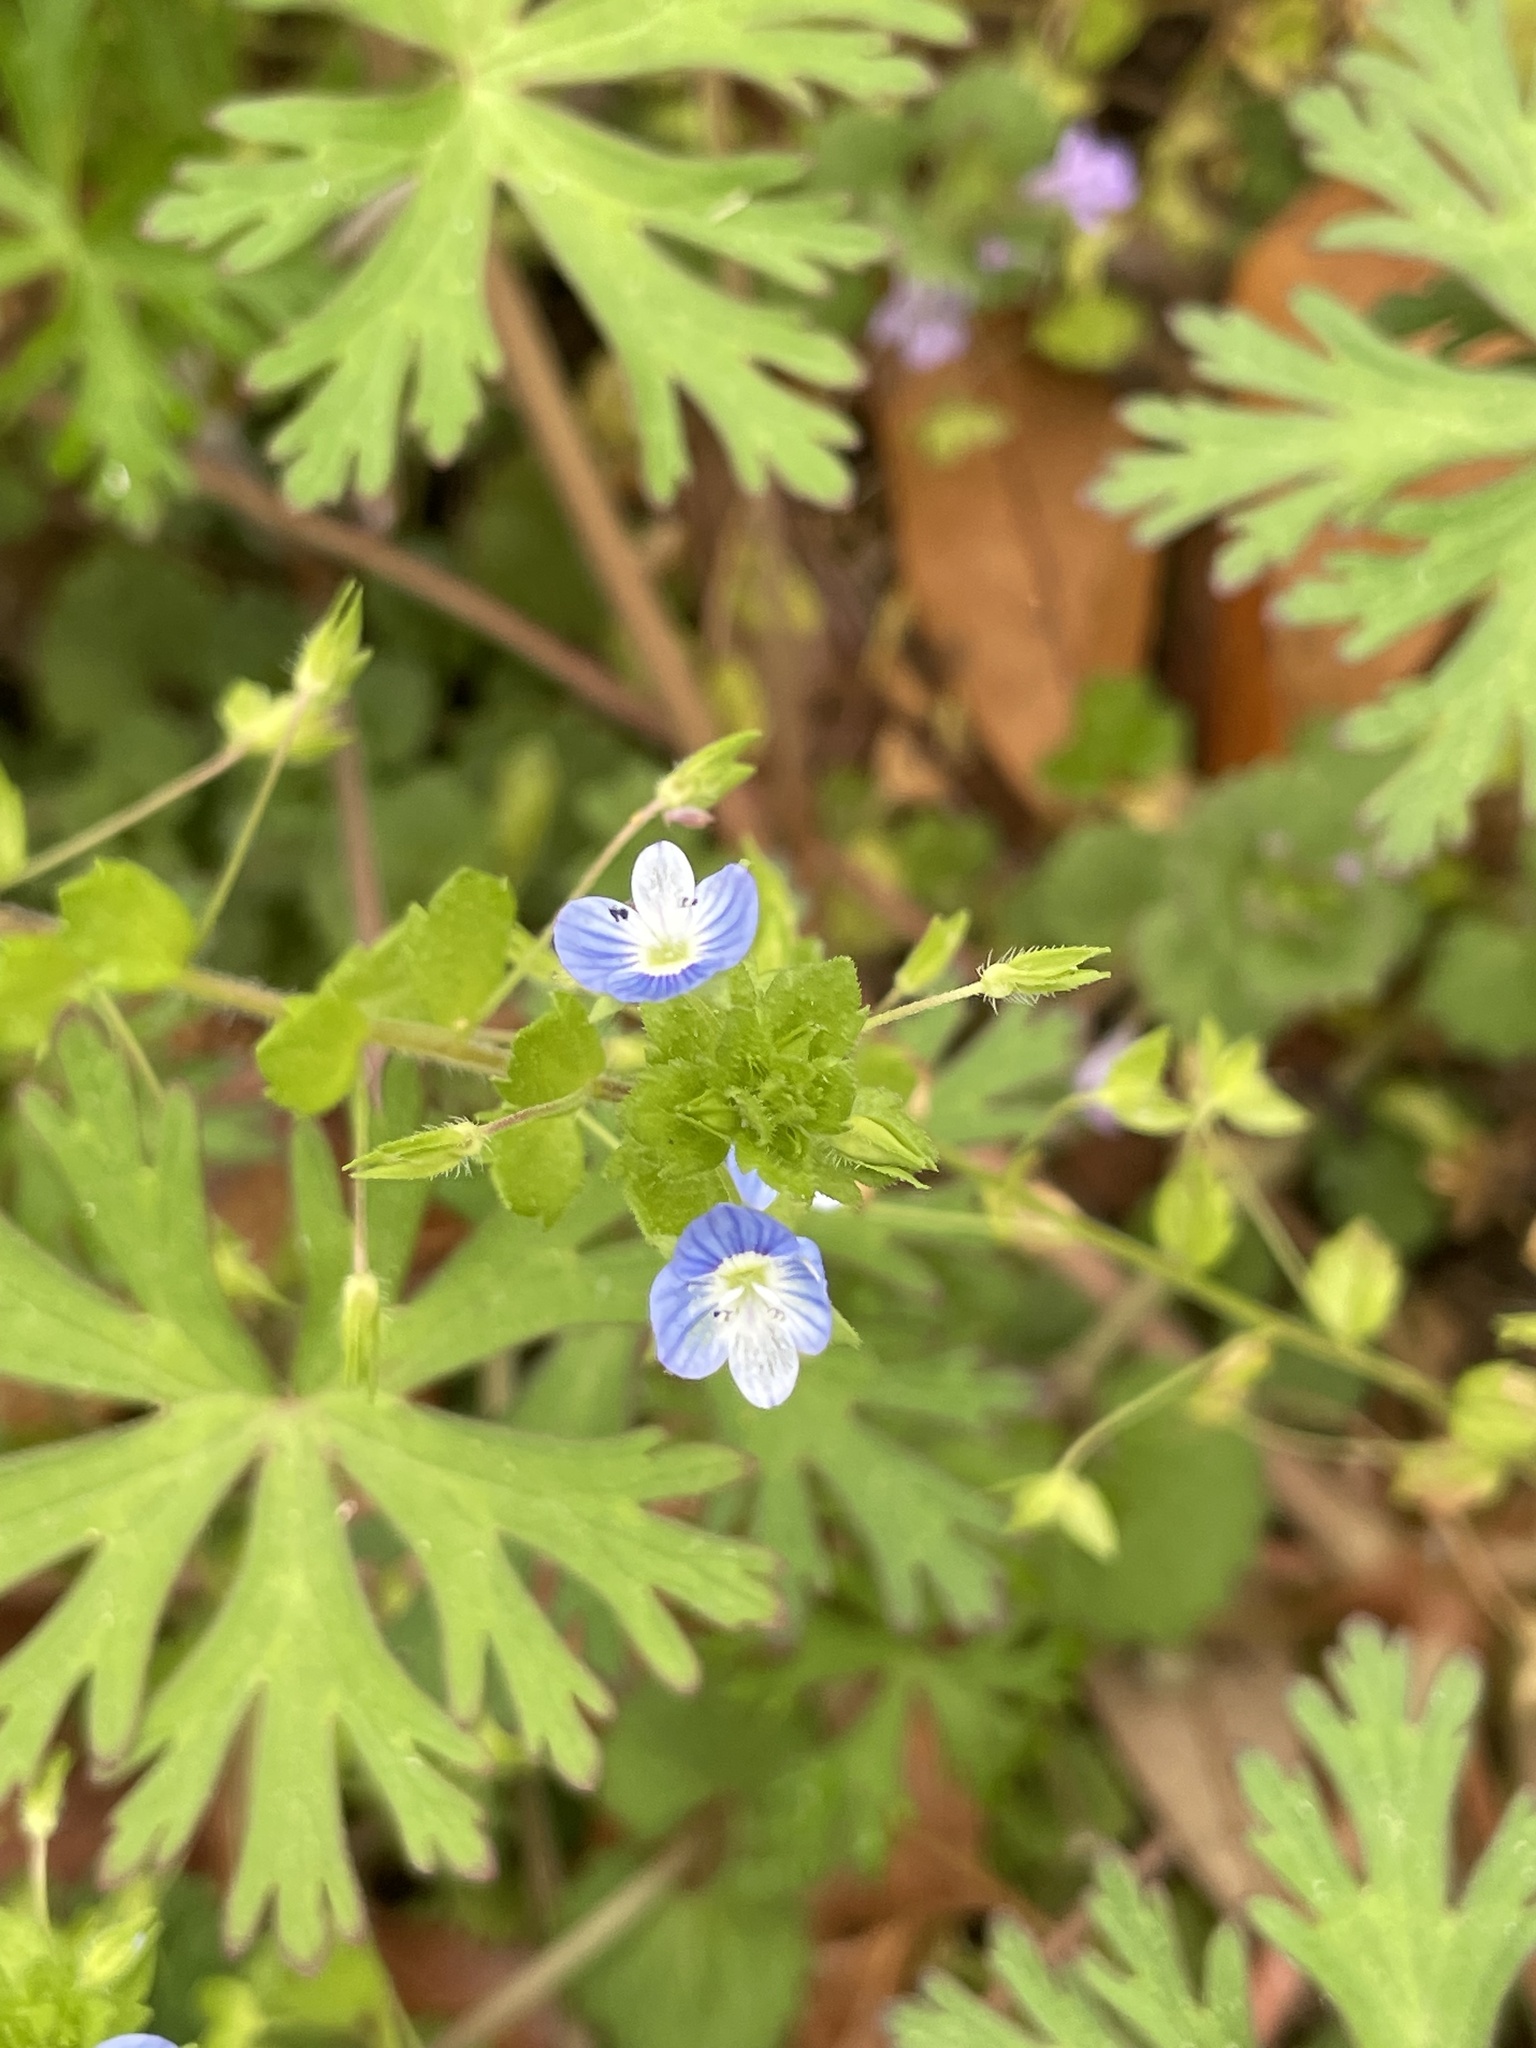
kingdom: Plantae
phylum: Tracheophyta
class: Magnoliopsida
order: Lamiales
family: Plantaginaceae
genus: Veronica
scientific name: Veronica persica
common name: Common field-speedwell
